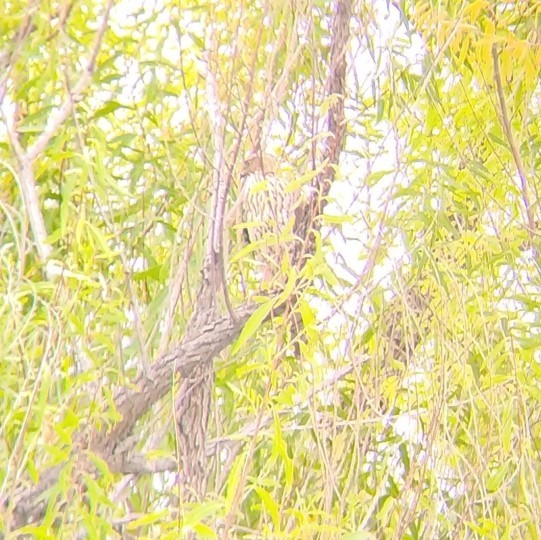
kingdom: Animalia
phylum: Chordata
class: Aves
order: Accipitriformes
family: Accipitridae
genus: Accipiter
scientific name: Accipiter cooperii
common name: Cooper's hawk
